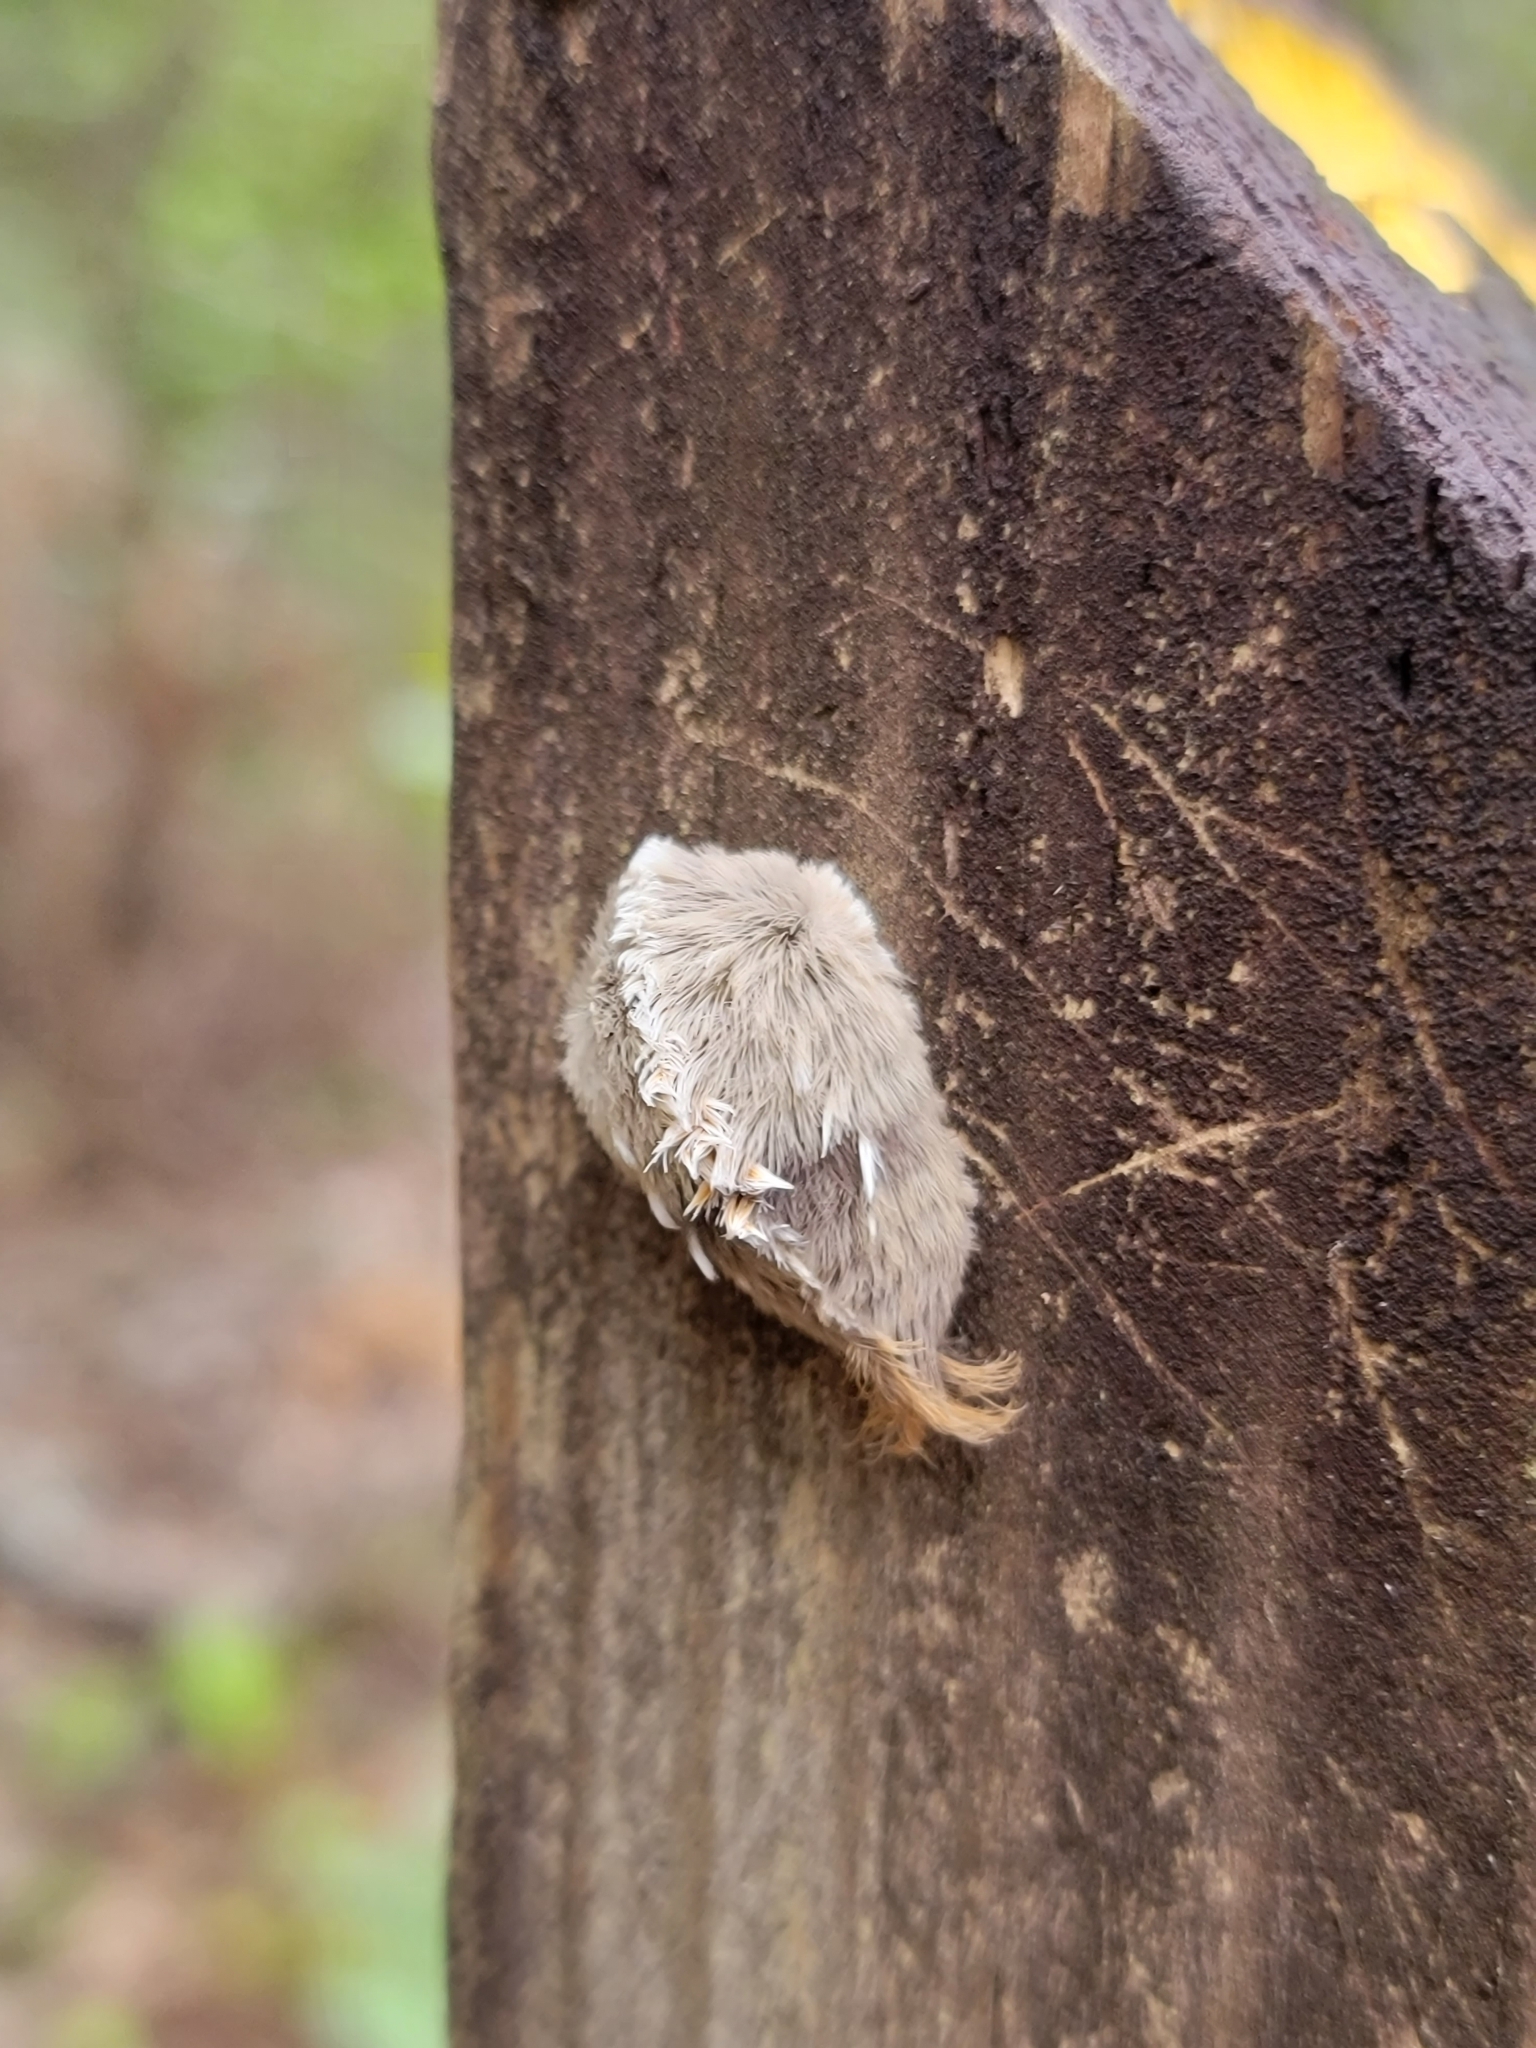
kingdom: Animalia
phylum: Arthropoda
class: Insecta
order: Lepidoptera
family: Megalopygidae
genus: Megalopyge
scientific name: Megalopyge opercularis
